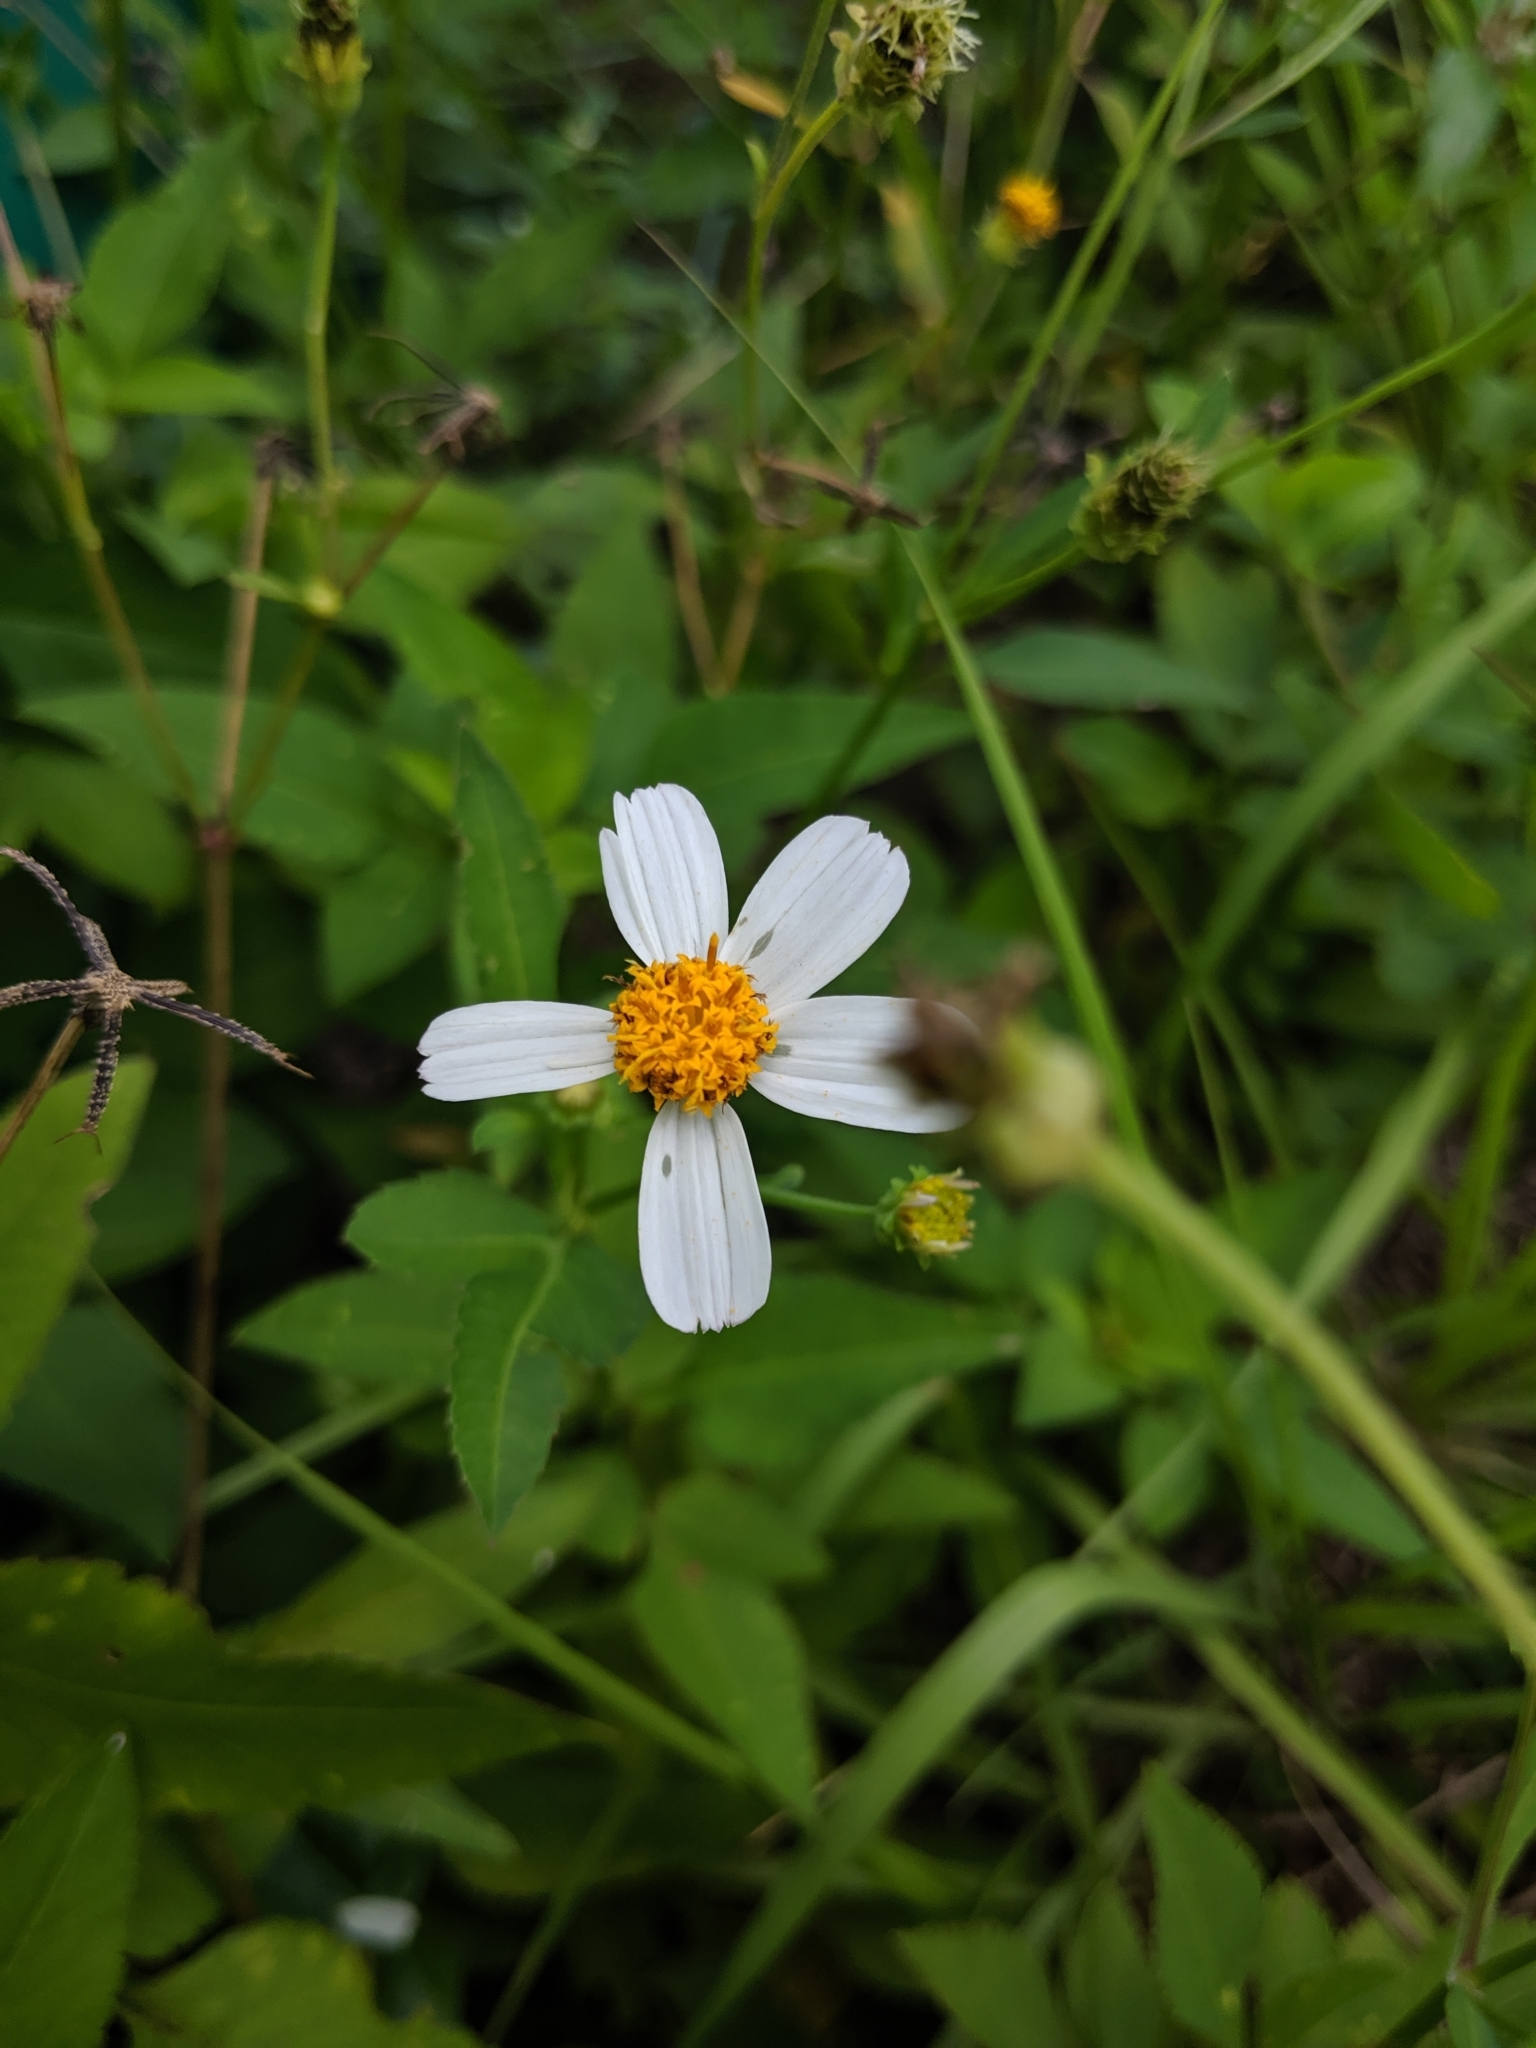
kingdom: Plantae
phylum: Tracheophyta
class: Magnoliopsida
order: Asterales
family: Asteraceae
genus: Bidens
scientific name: Bidens alba
